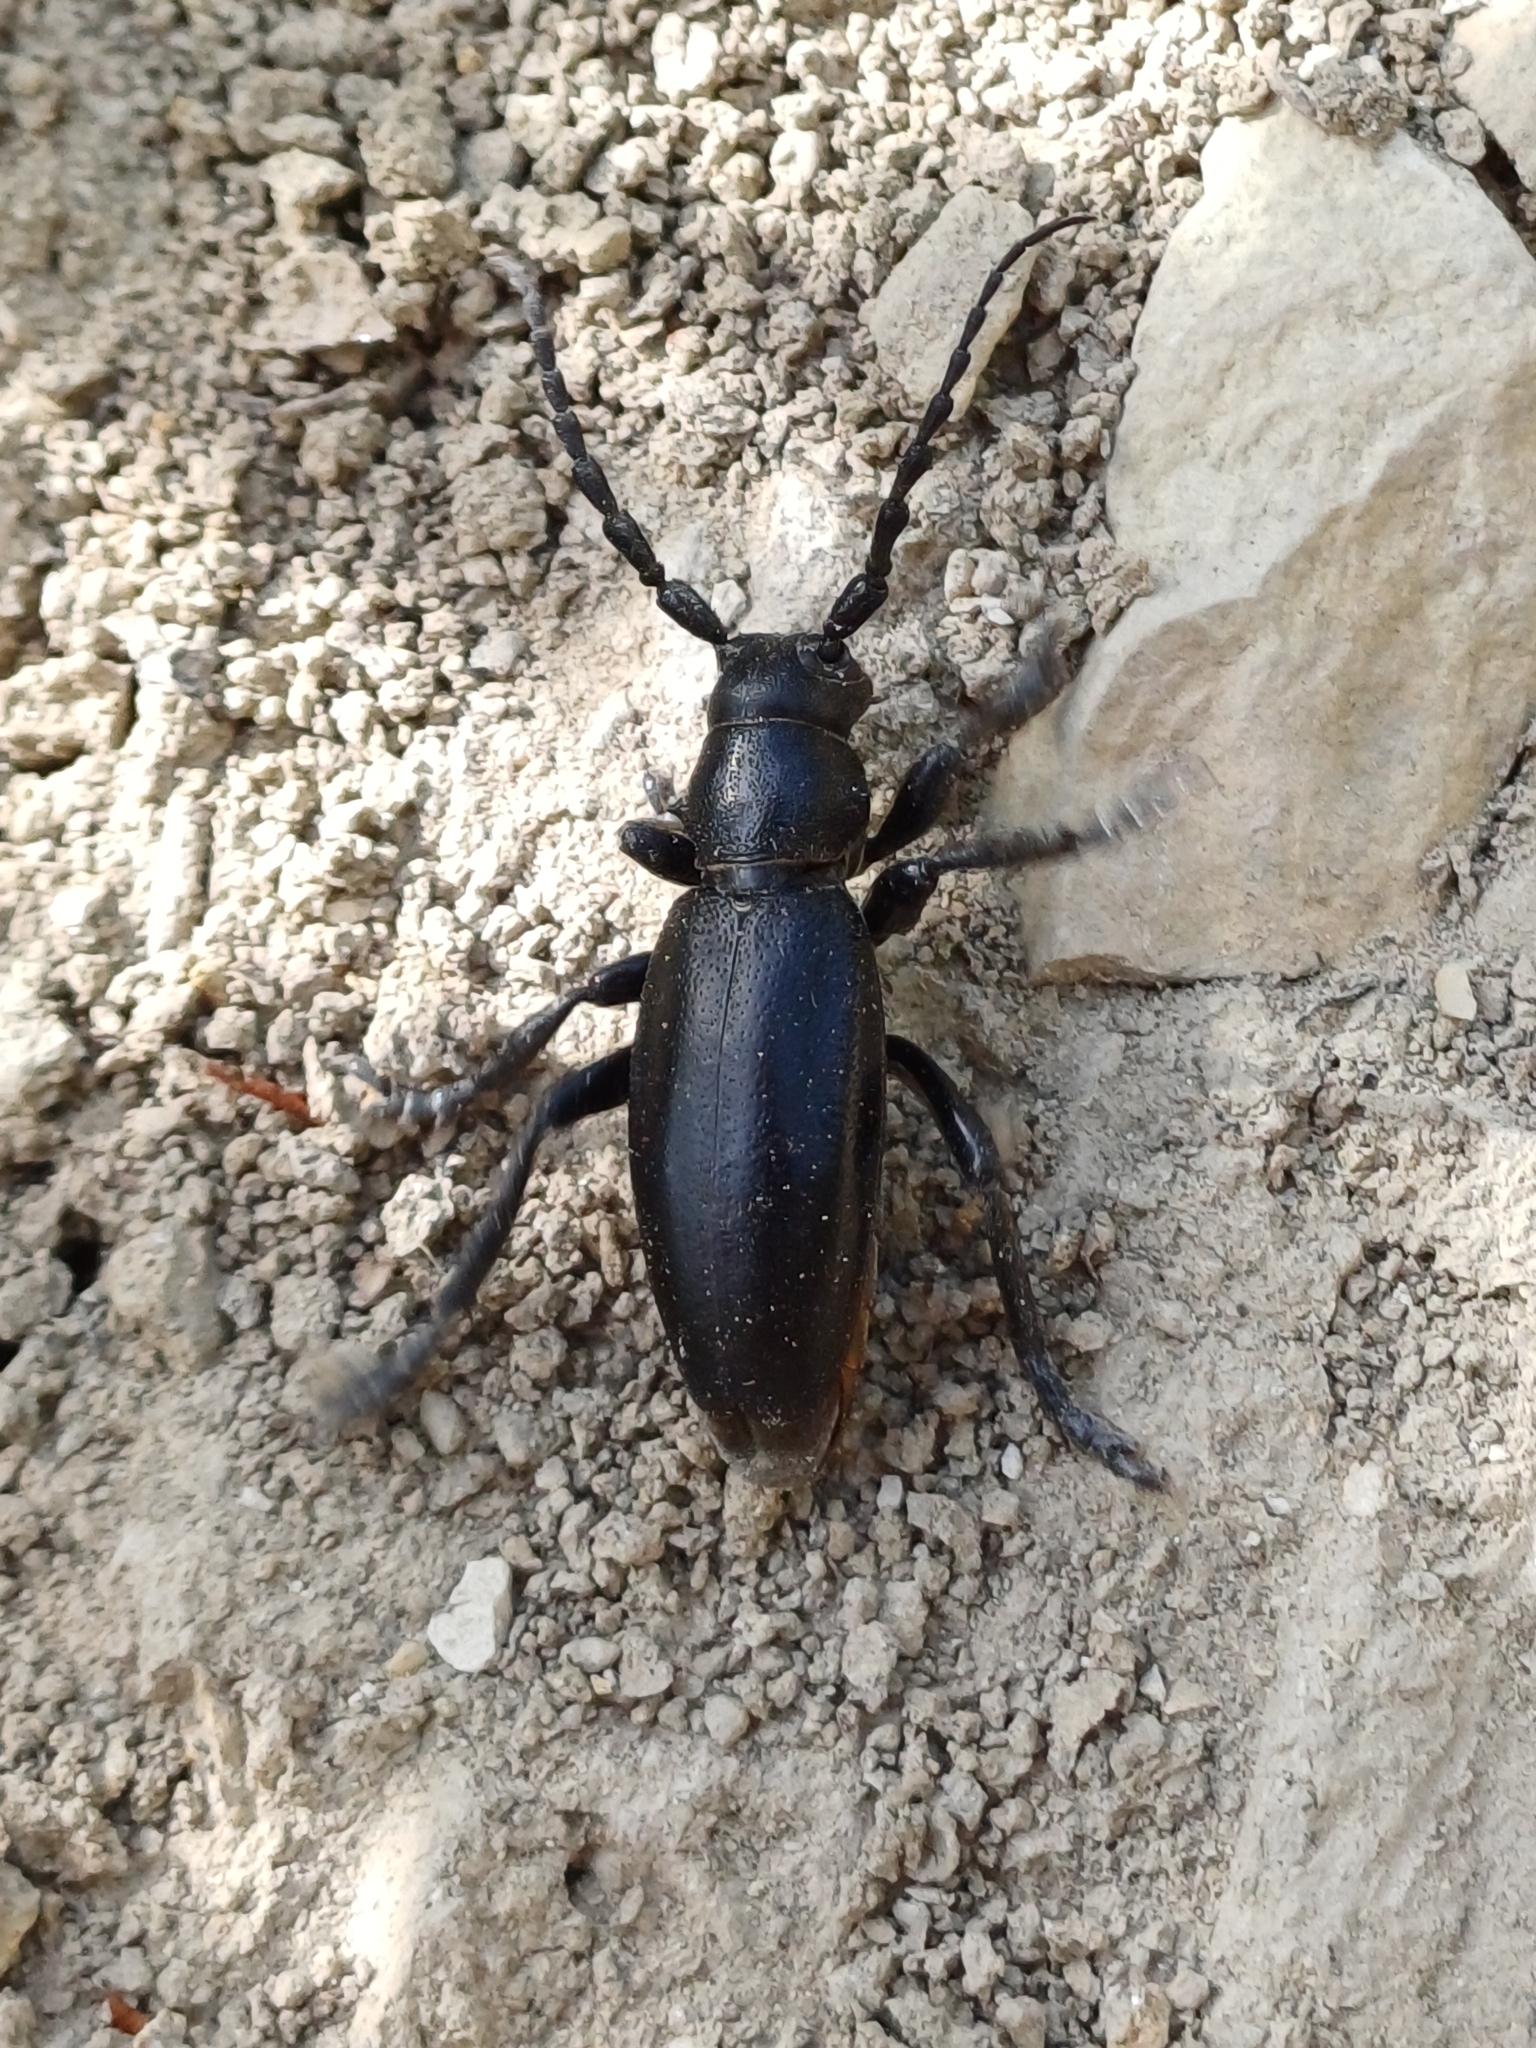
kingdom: Animalia
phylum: Arthropoda
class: Insecta
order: Coleoptera
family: Cerambycidae
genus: Dorcadion
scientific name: Dorcadion aethiops
